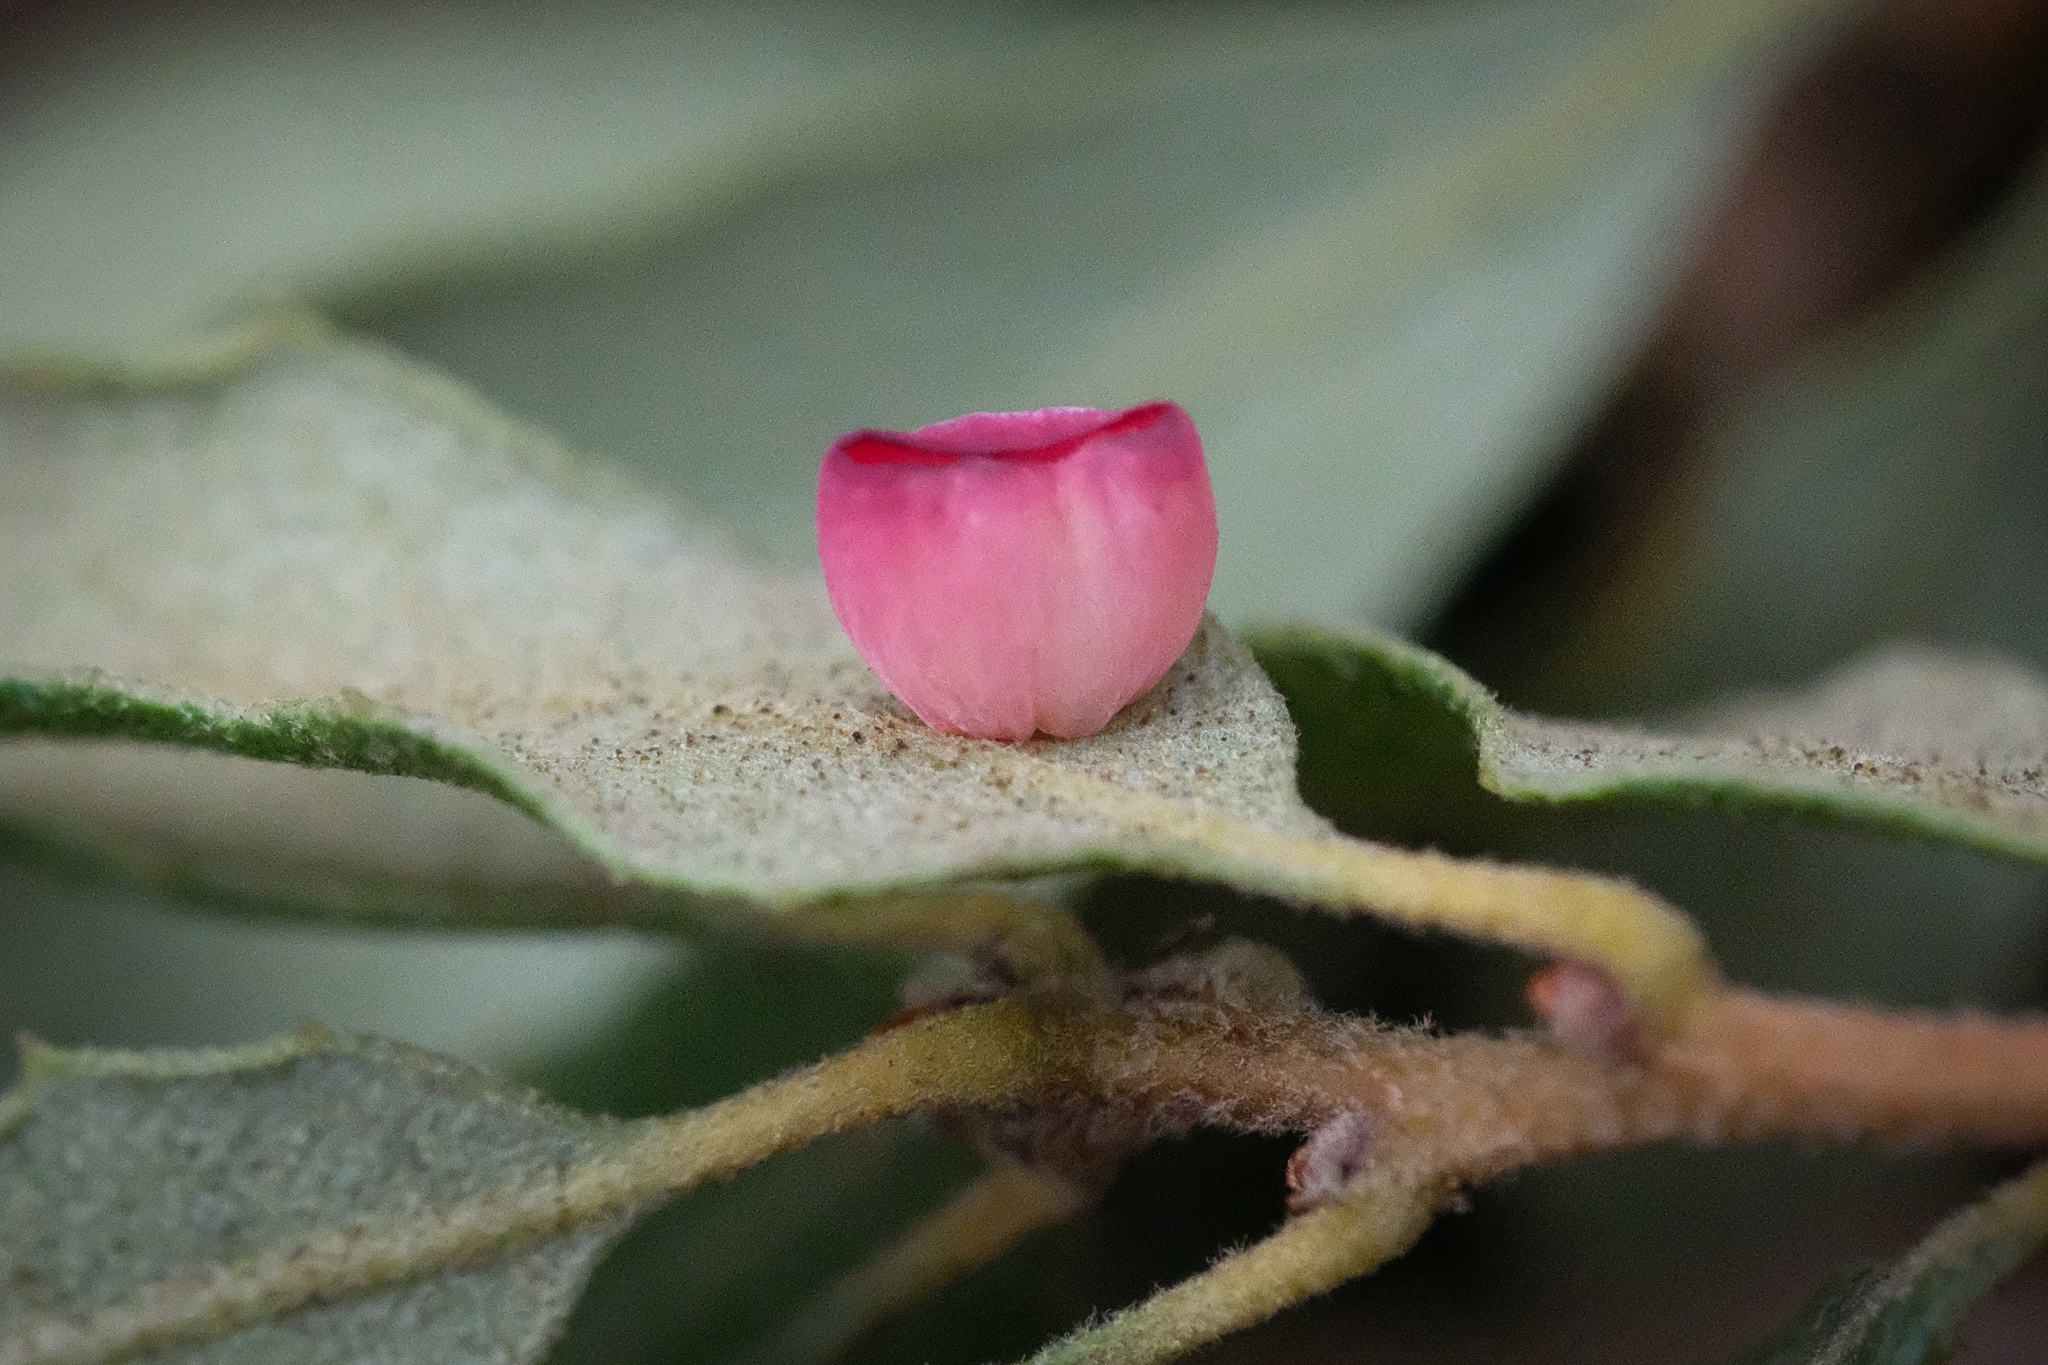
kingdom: Animalia
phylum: Arthropoda
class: Insecta
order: Hymenoptera
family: Cynipidae
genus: Andricus
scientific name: Andricus
